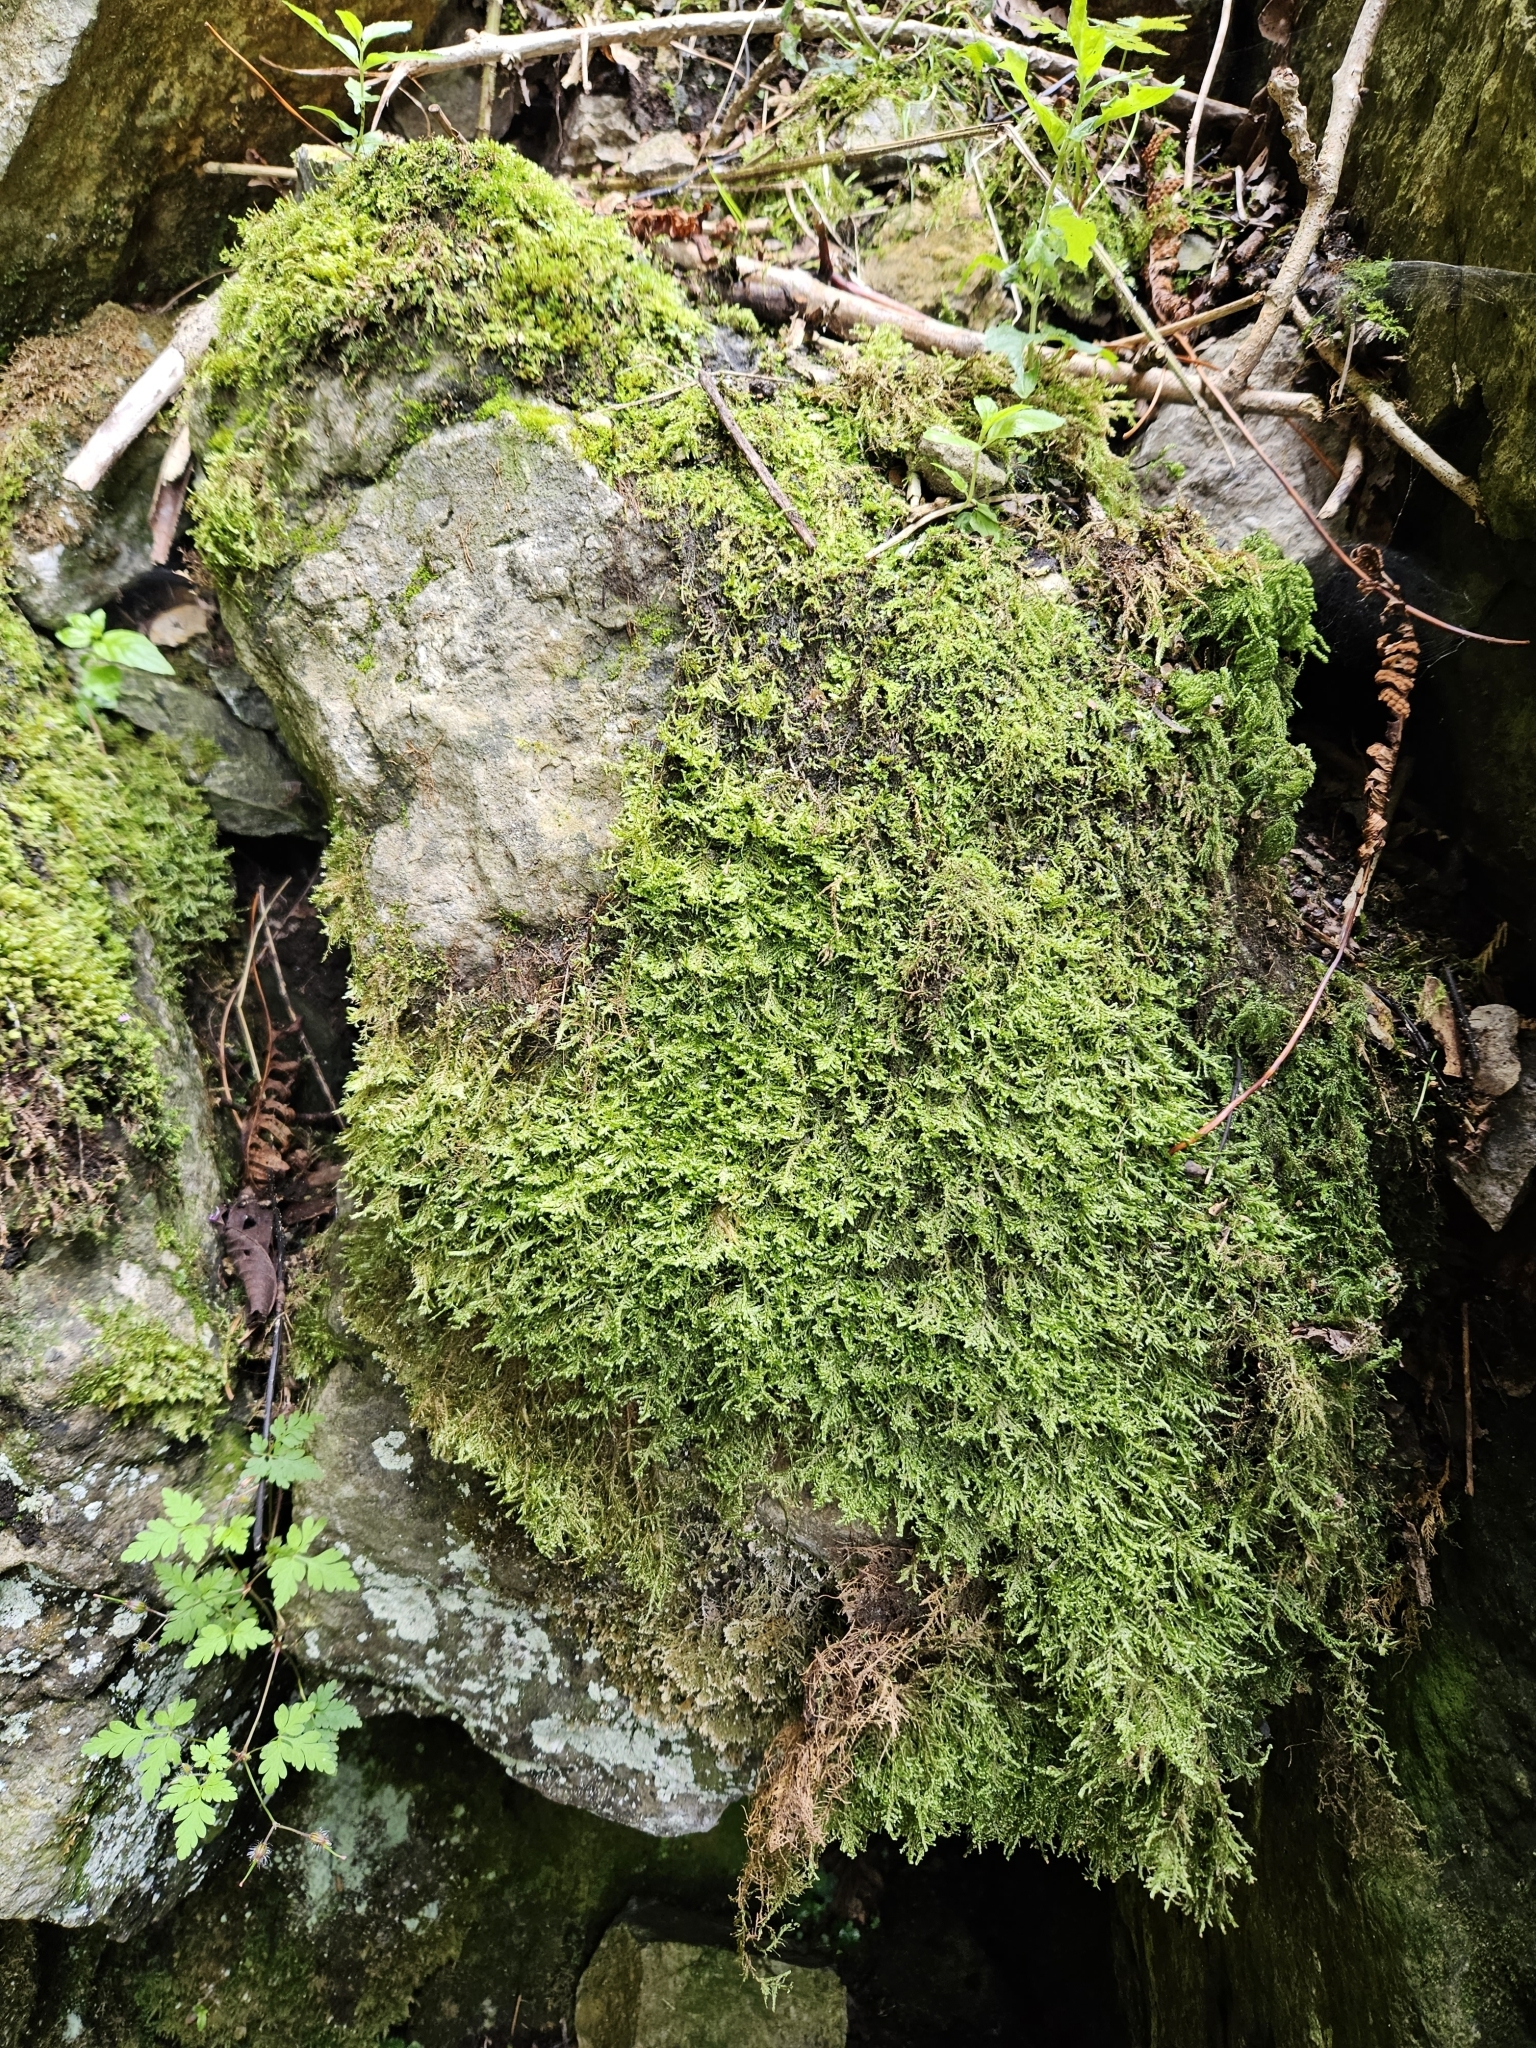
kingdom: Plantae
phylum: Bryophyta
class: Bryopsida
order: Hypnales
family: Neckeraceae
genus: Alleniella
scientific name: Alleniella complanata
